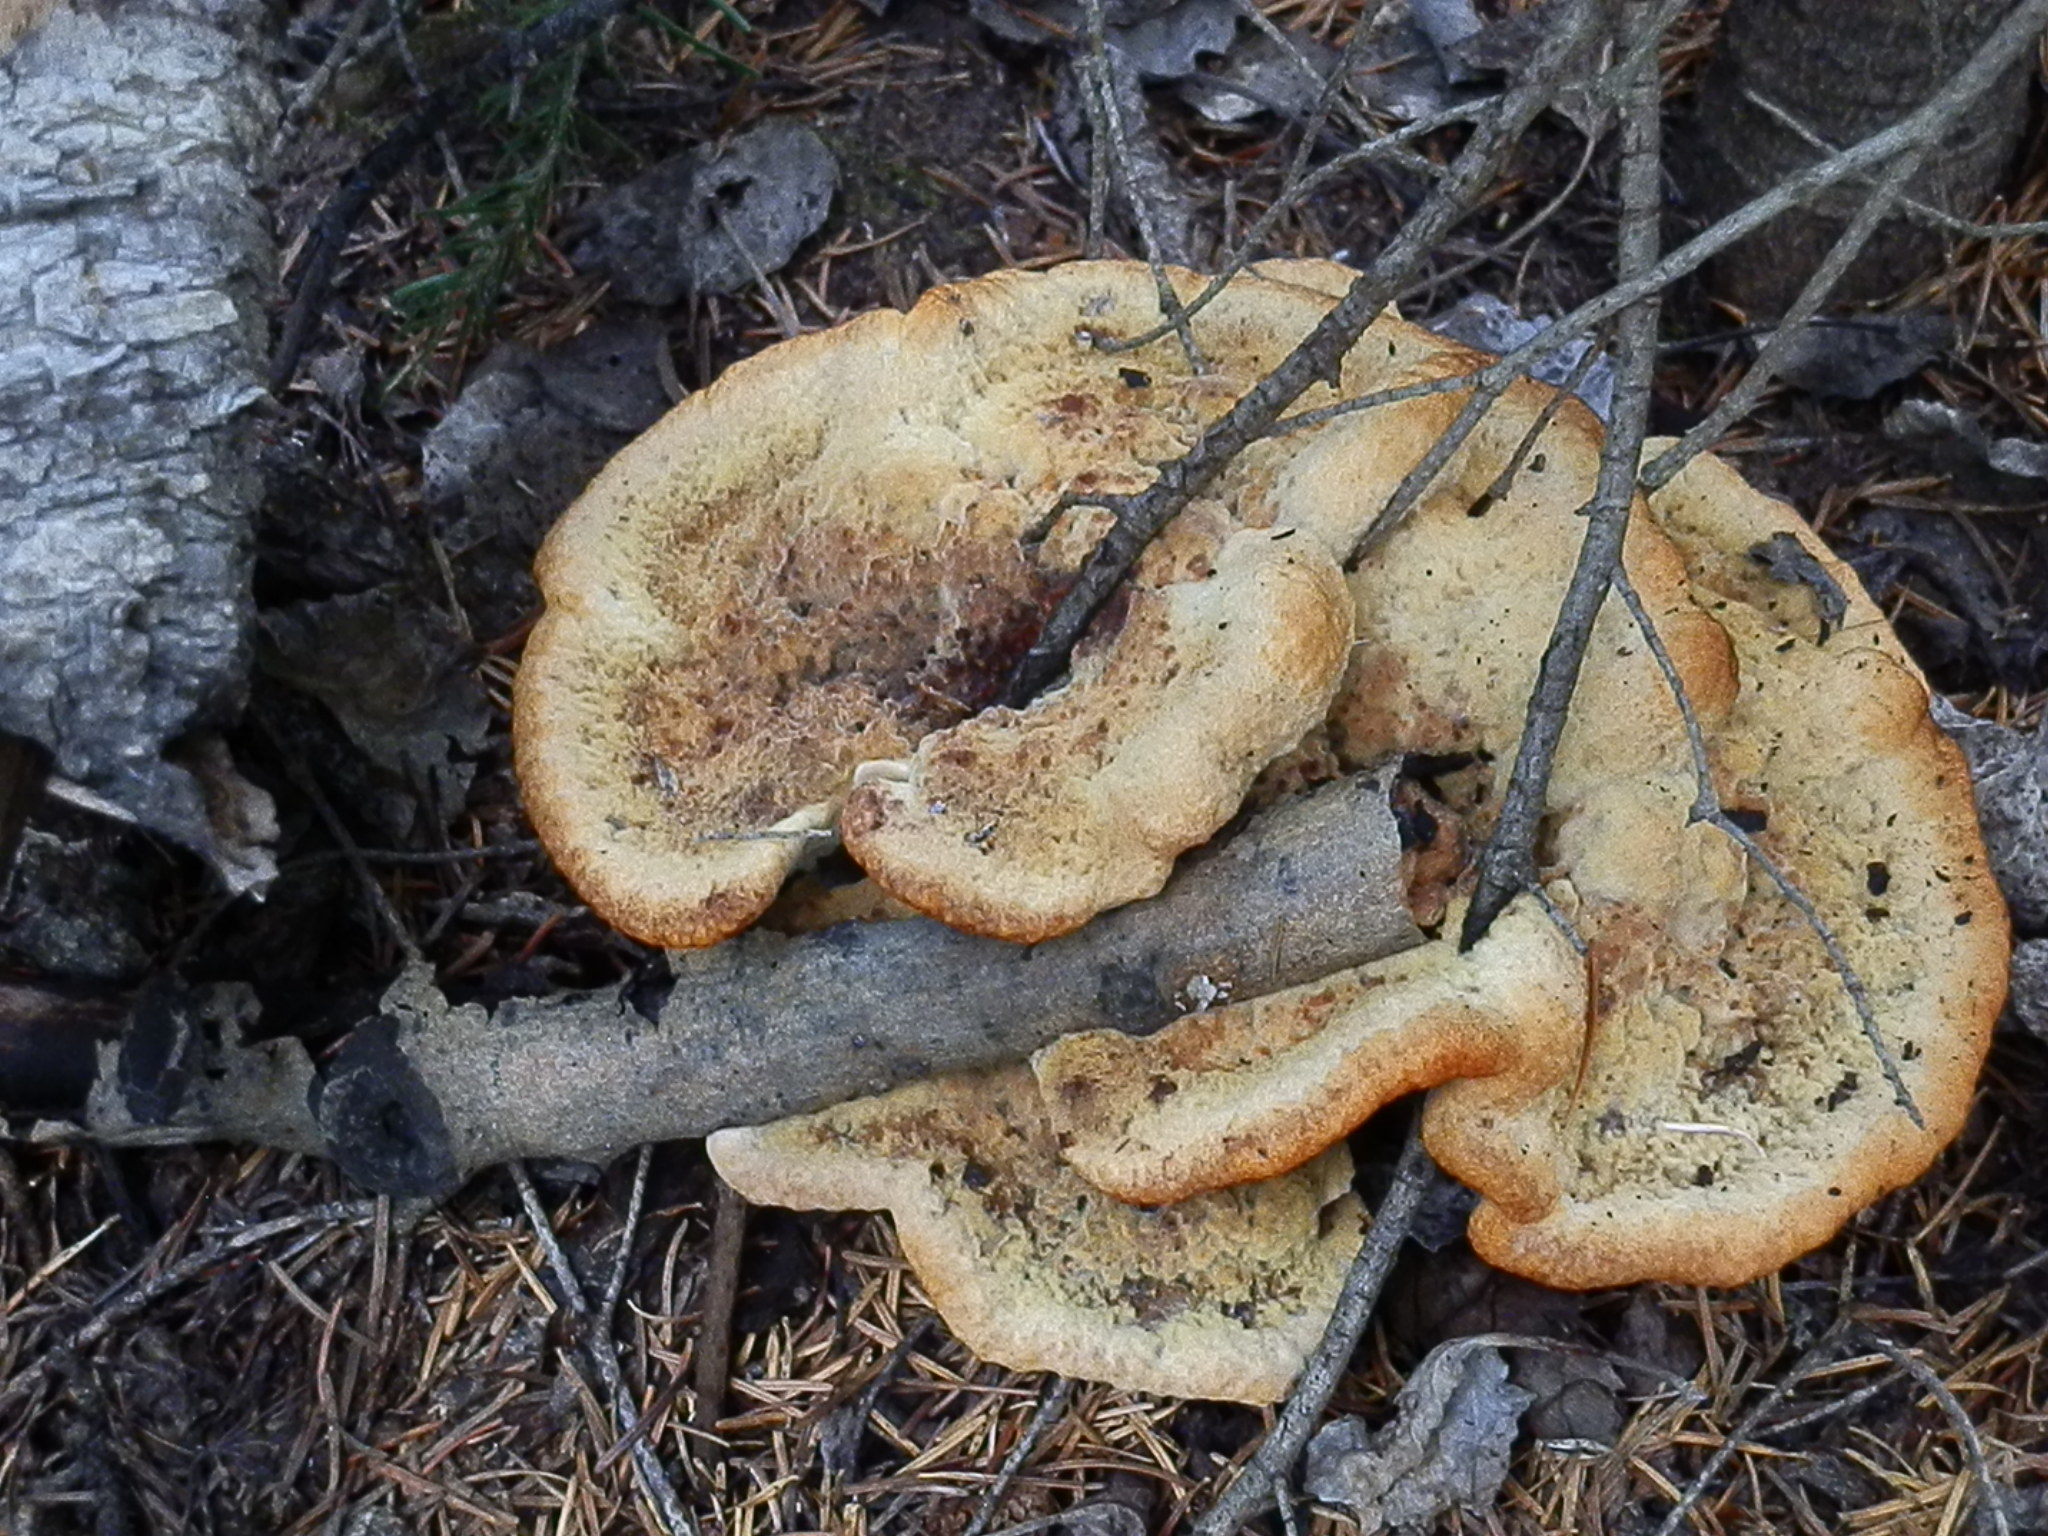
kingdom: Fungi
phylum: Basidiomycota
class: Agaricomycetes
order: Polyporales
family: Laetiporaceae
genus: Phaeolus
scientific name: Phaeolus schweinitzii
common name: Dyer's mazegill
